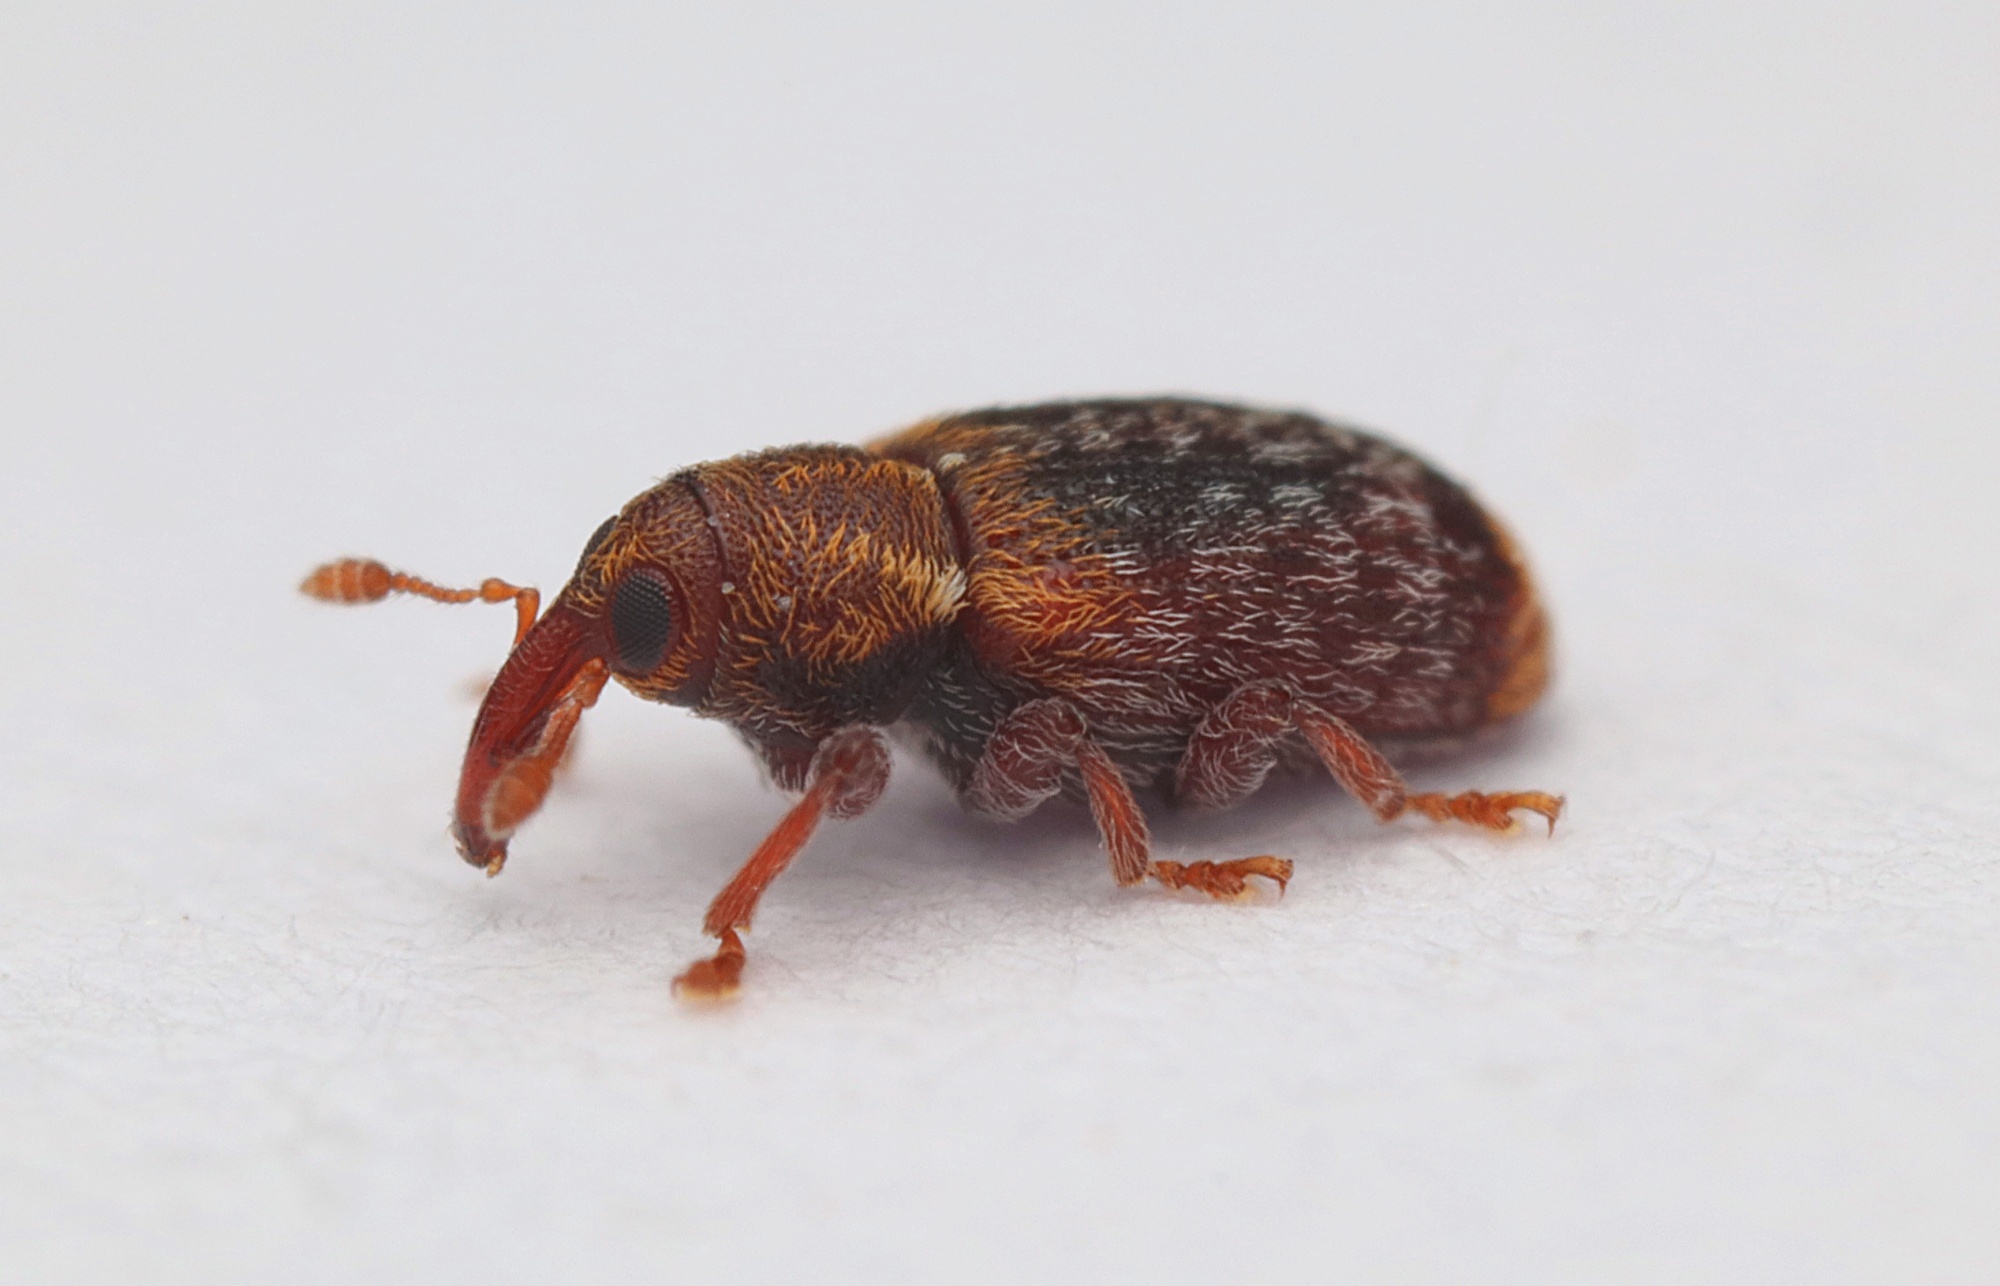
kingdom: Animalia
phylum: Arthropoda
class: Insecta
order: Coleoptera
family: Curculionidae
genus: Peristoreus
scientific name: Peristoreus flavitarsis
